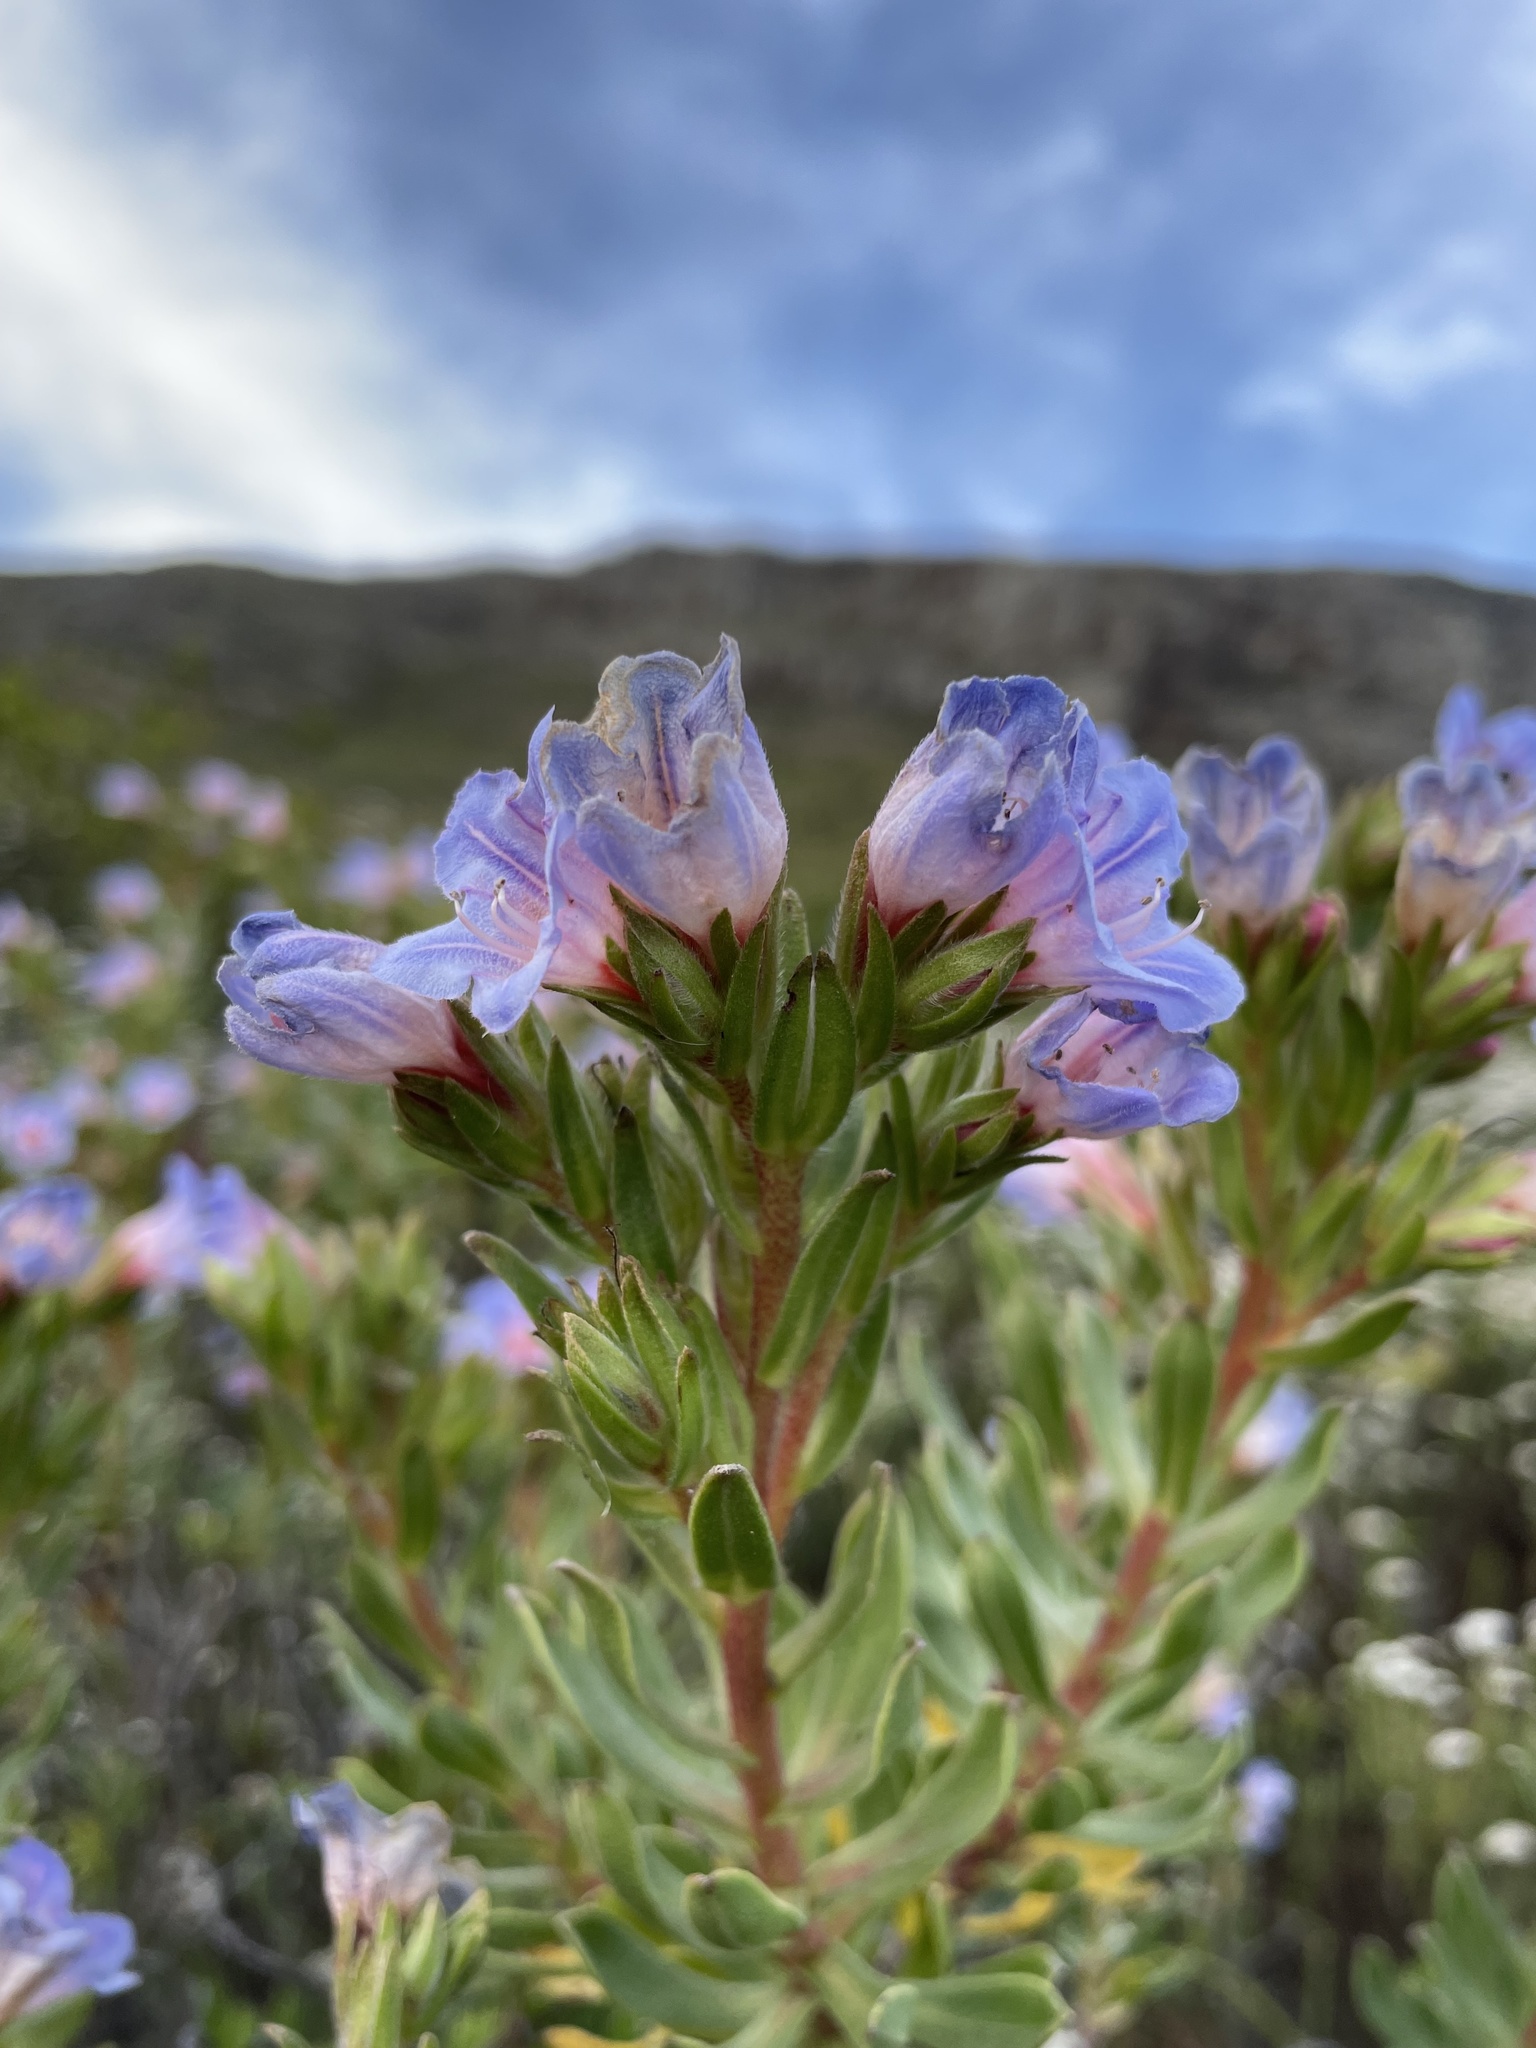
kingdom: Plantae
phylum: Tracheophyta
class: Magnoliopsida
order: Boraginales
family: Boraginaceae
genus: Lobostemon
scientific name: Lobostemon fruticosus
